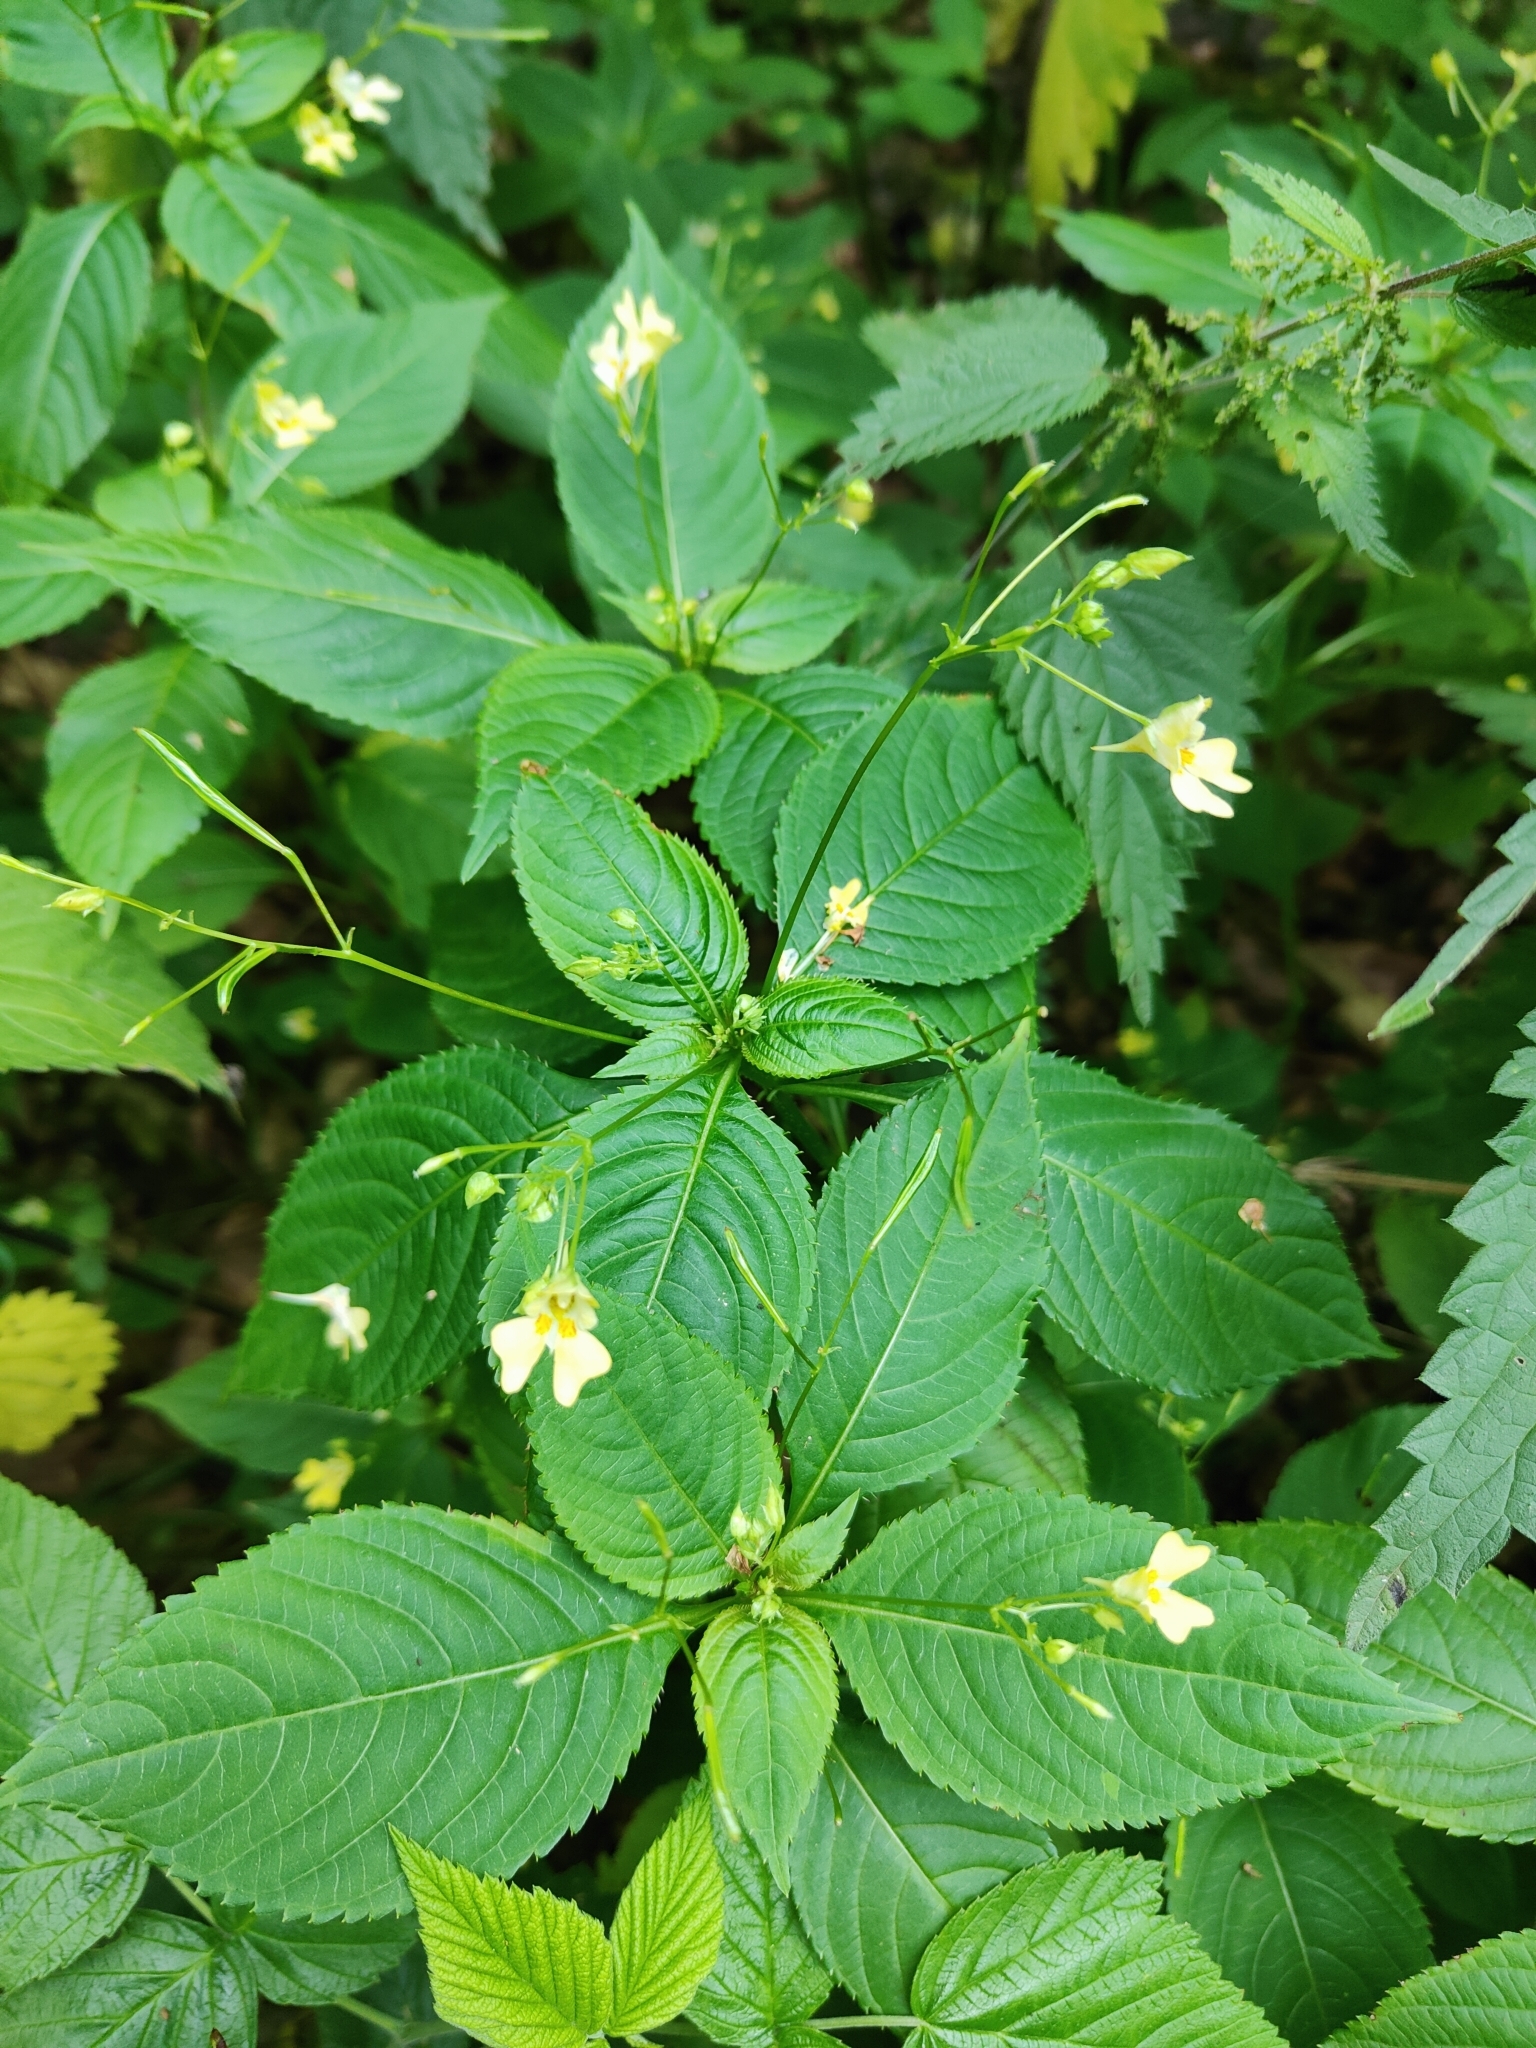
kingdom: Plantae
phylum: Tracheophyta
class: Magnoliopsida
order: Ericales
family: Balsaminaceae
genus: Impatiens
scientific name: Impatiens parviflora
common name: Small balsam
